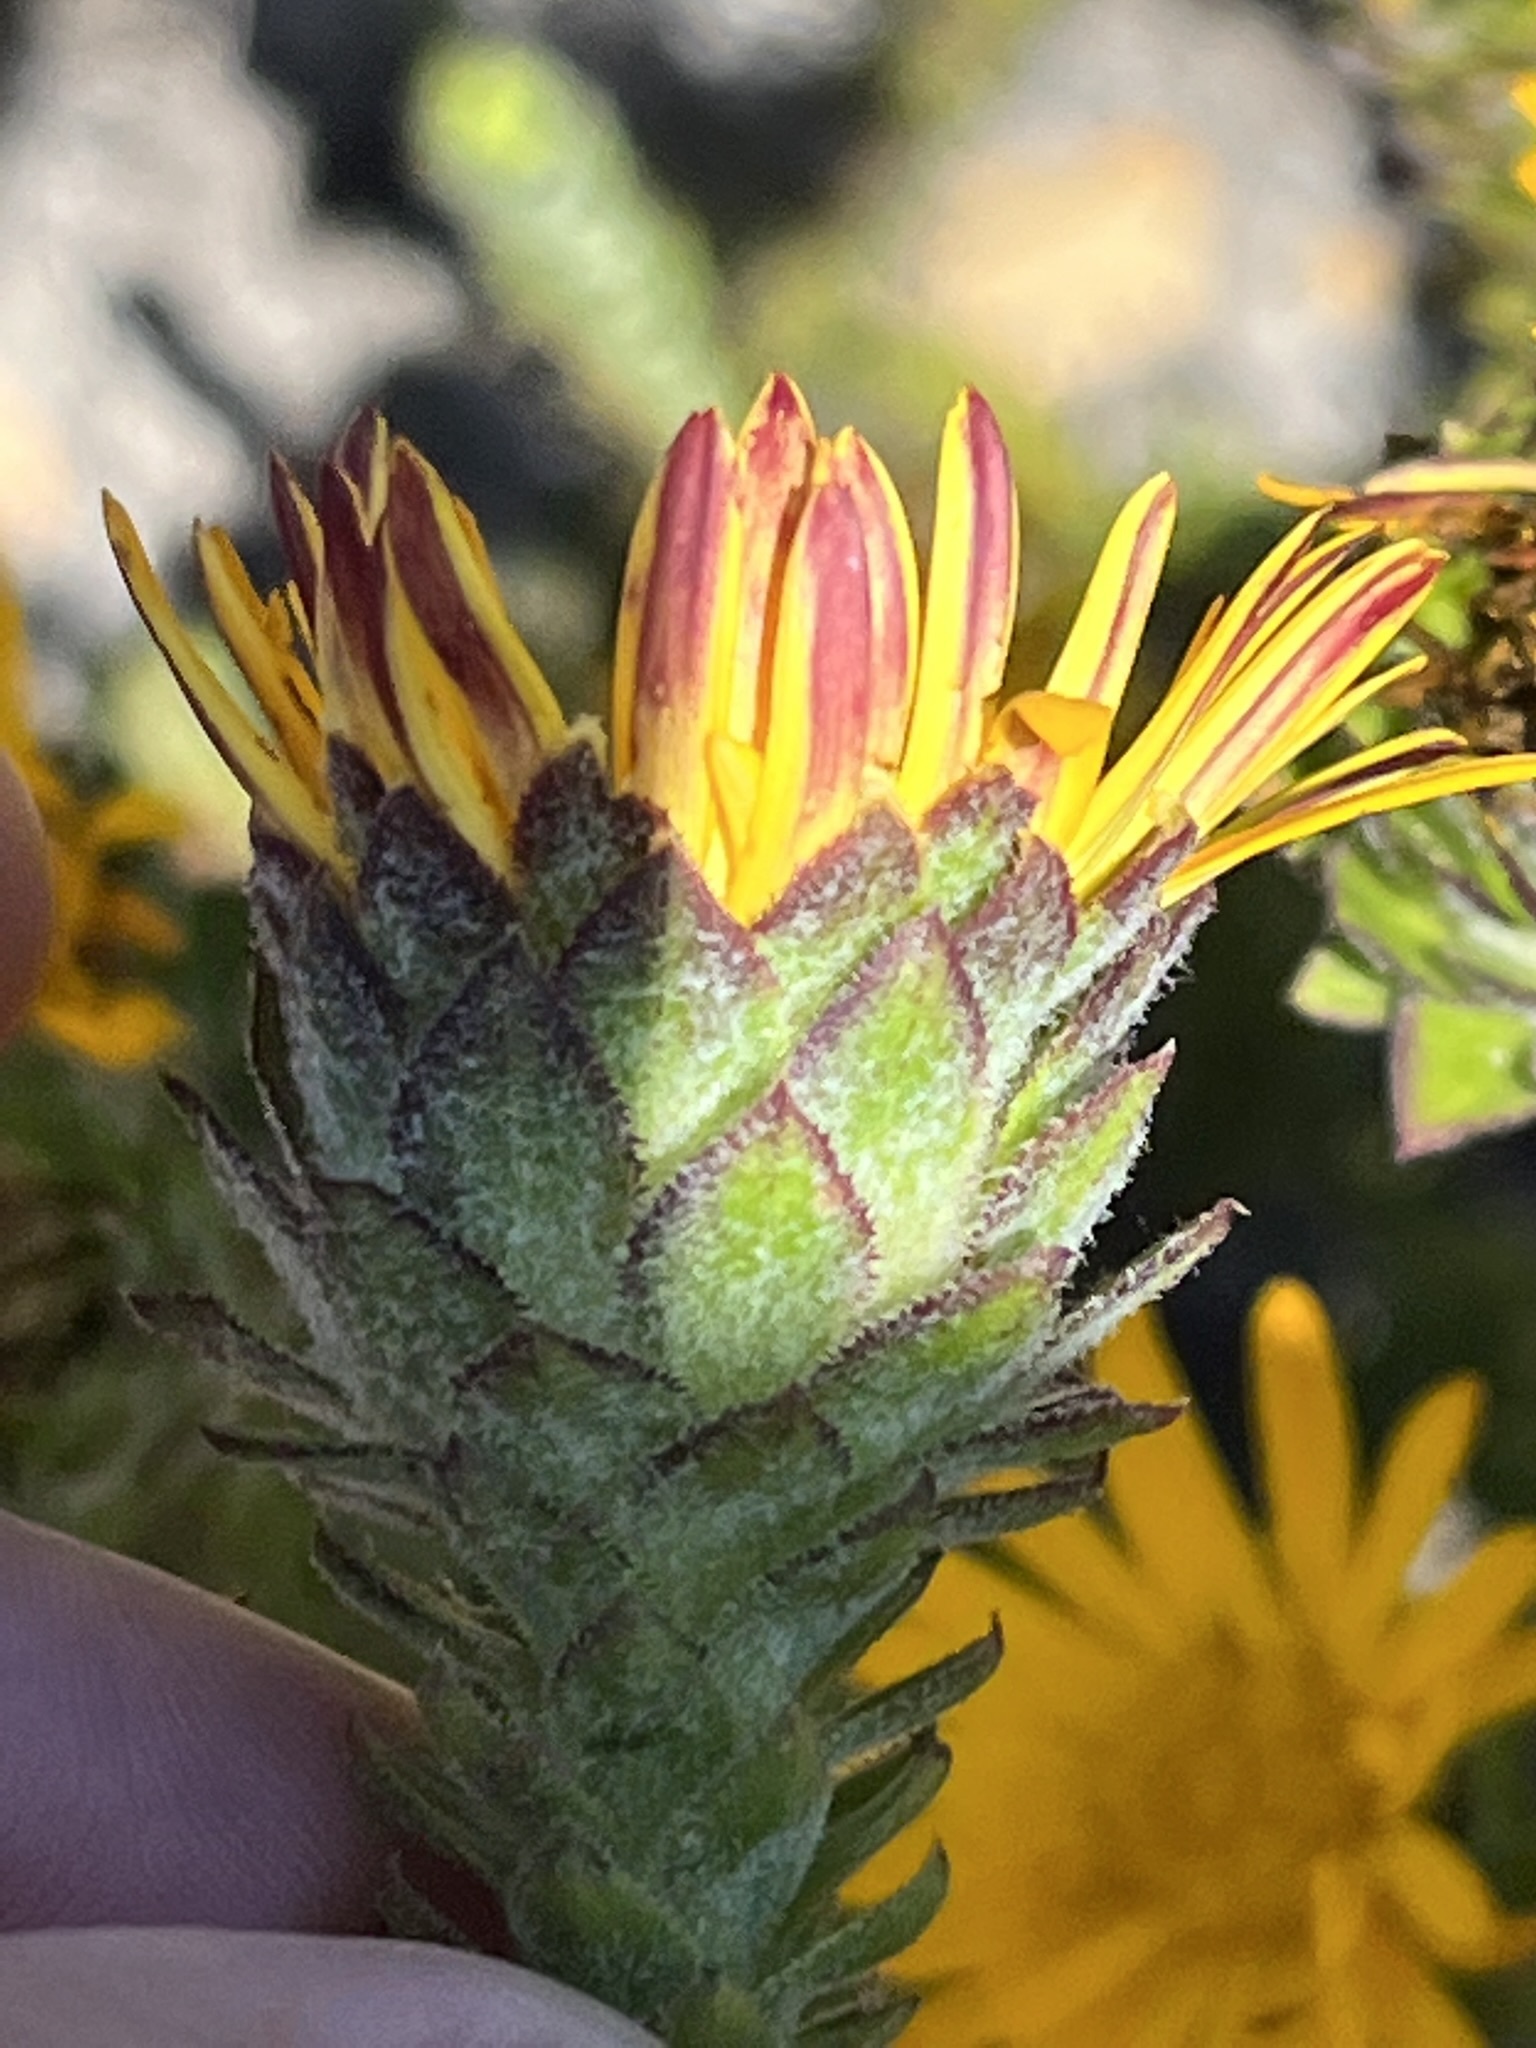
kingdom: Plantae
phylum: Tracheophyta
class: Magnoliopsida
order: Asterales
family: Asteraceae
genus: Oedera
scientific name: Oedera imbricata
